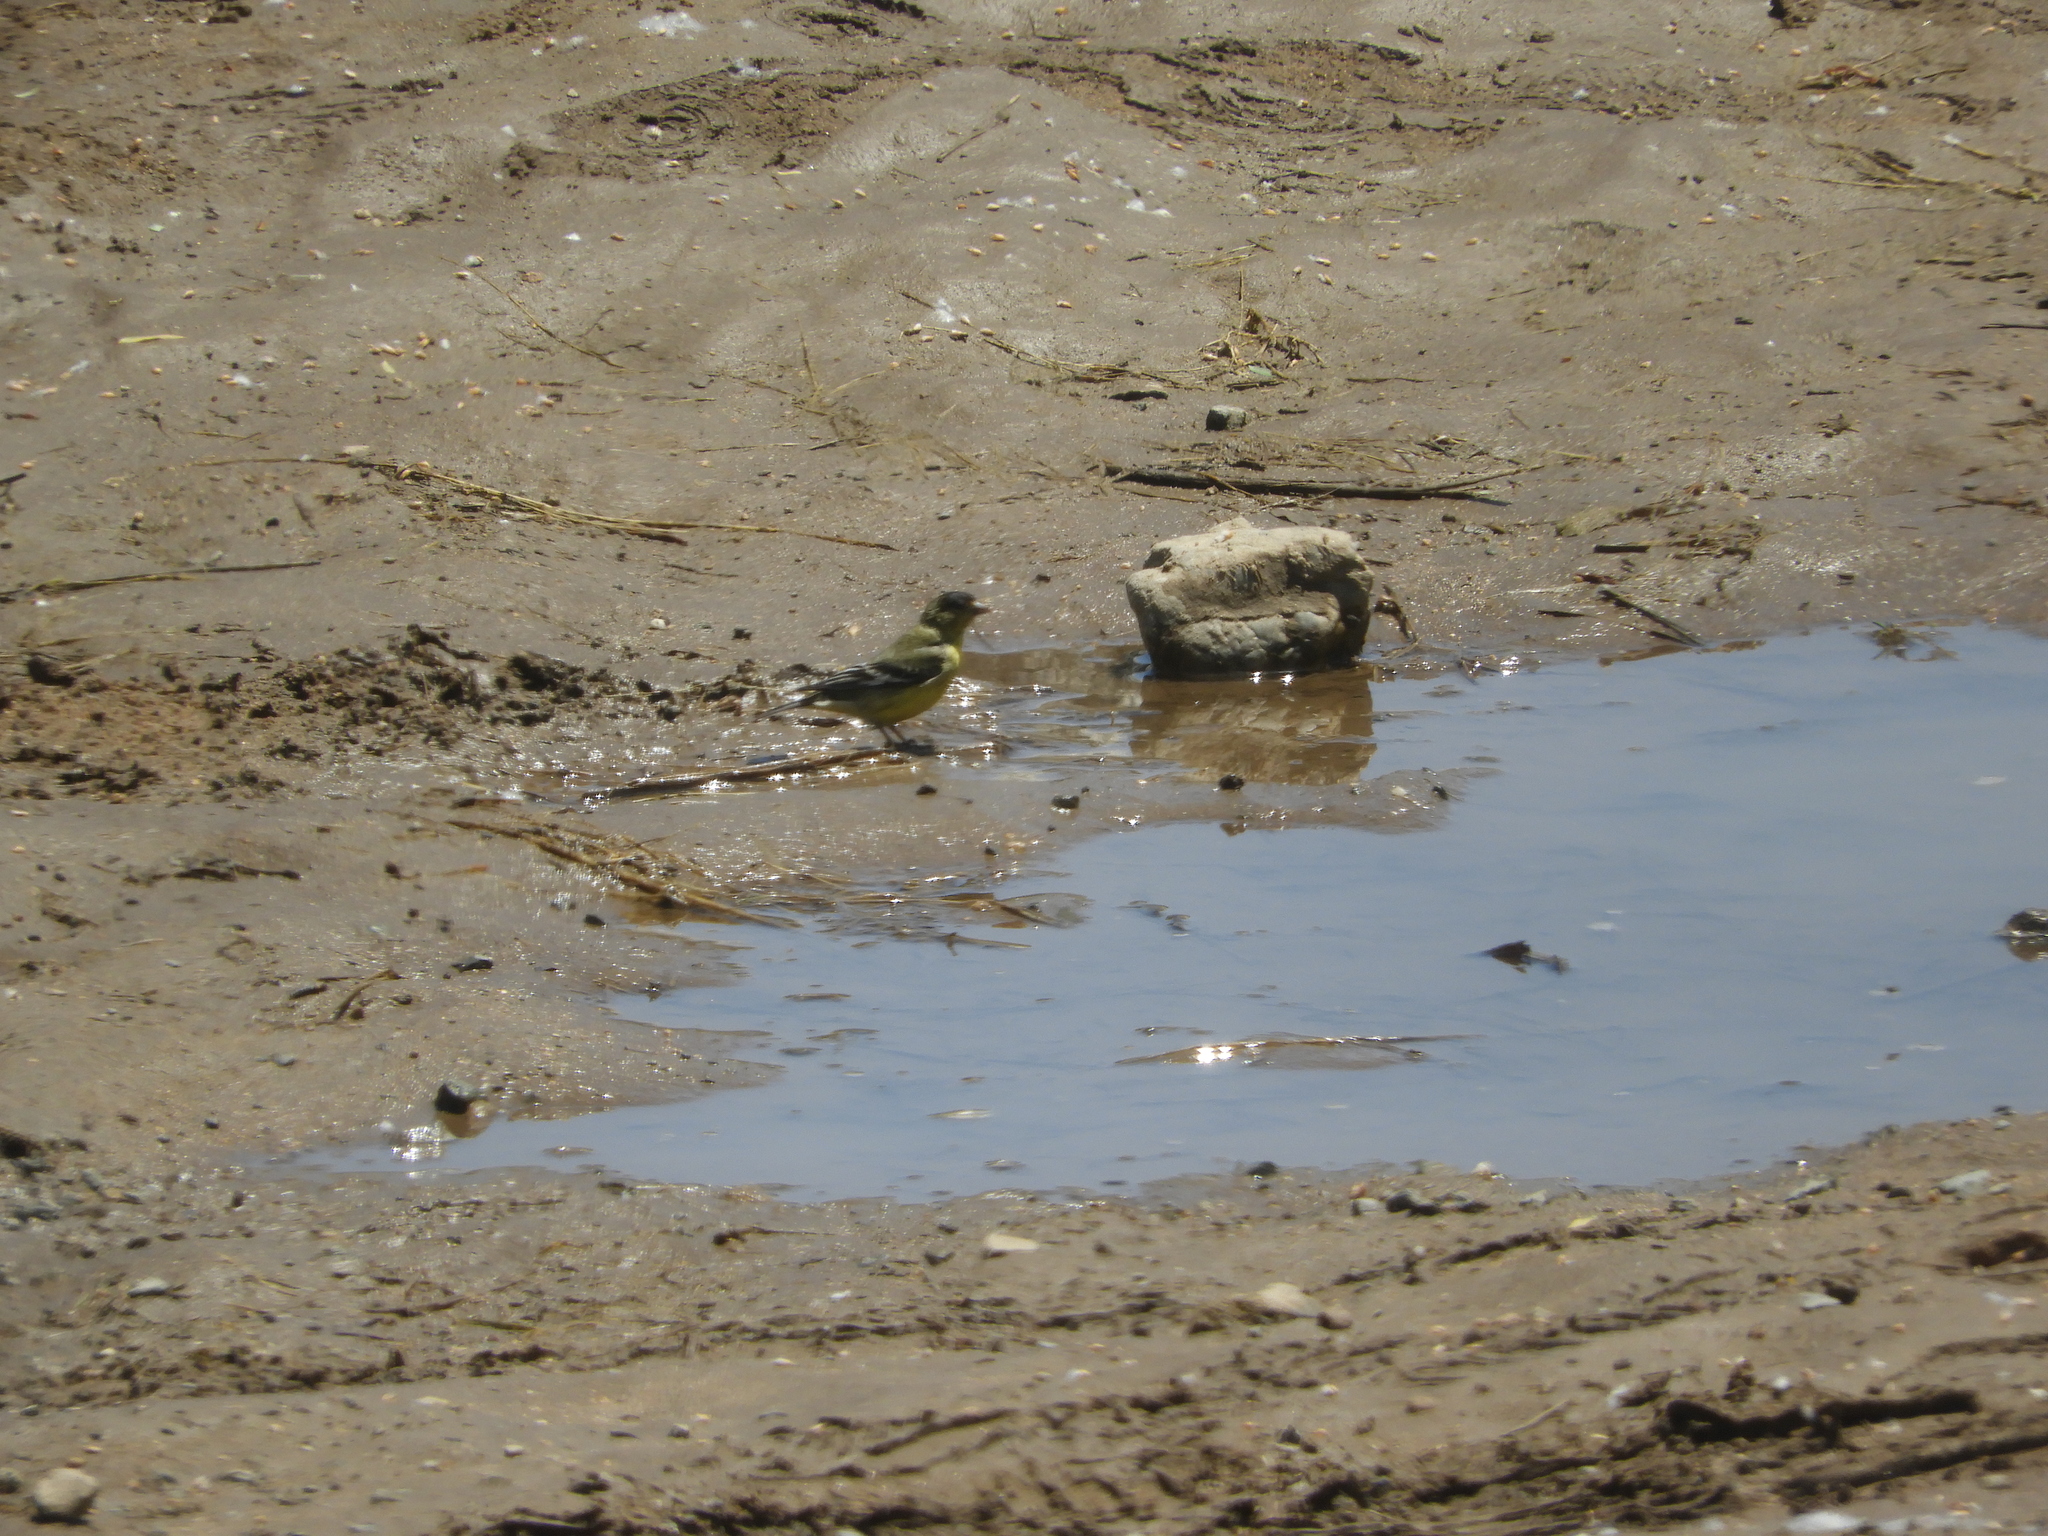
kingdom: Animalia
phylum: Chordata
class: Aves
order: Passeriformes
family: Fringillidae
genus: Spinus
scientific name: Spinus psaltria
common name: Lesser goldfinch
